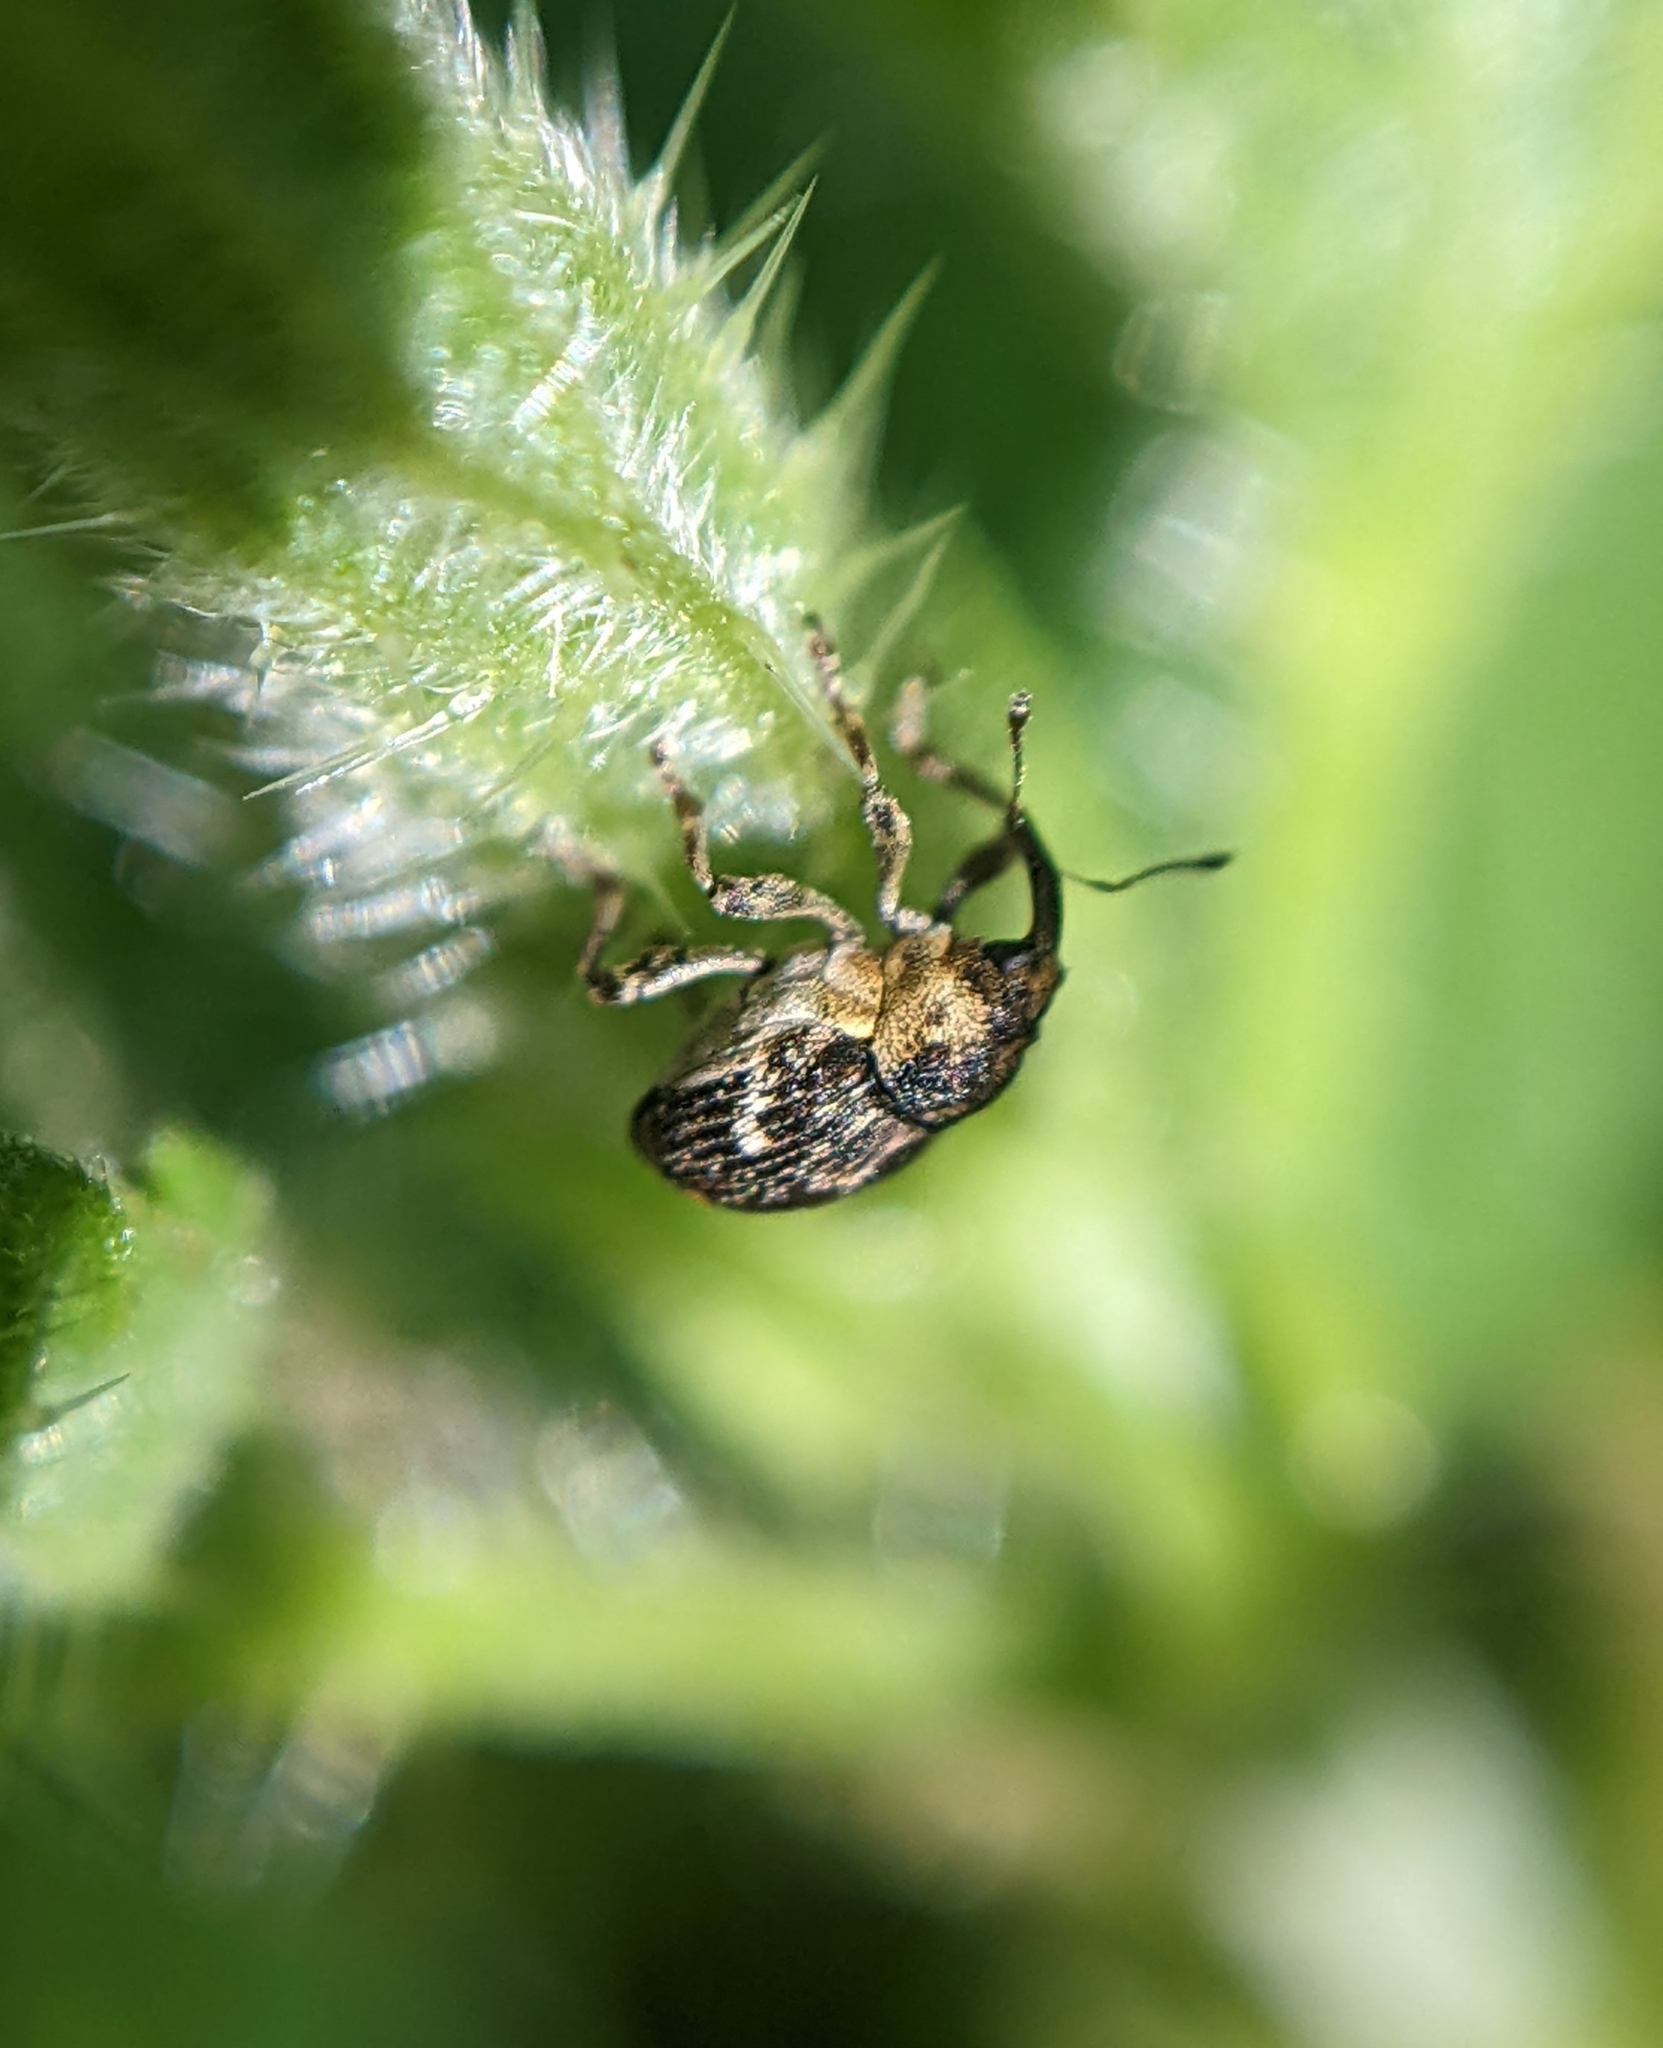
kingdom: Animalia
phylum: Arthropoda
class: Insecta
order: Coleoptera
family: Curculionidae
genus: Nedyus
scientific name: Nedyus quadrimaculatus
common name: Small nettle weevil
